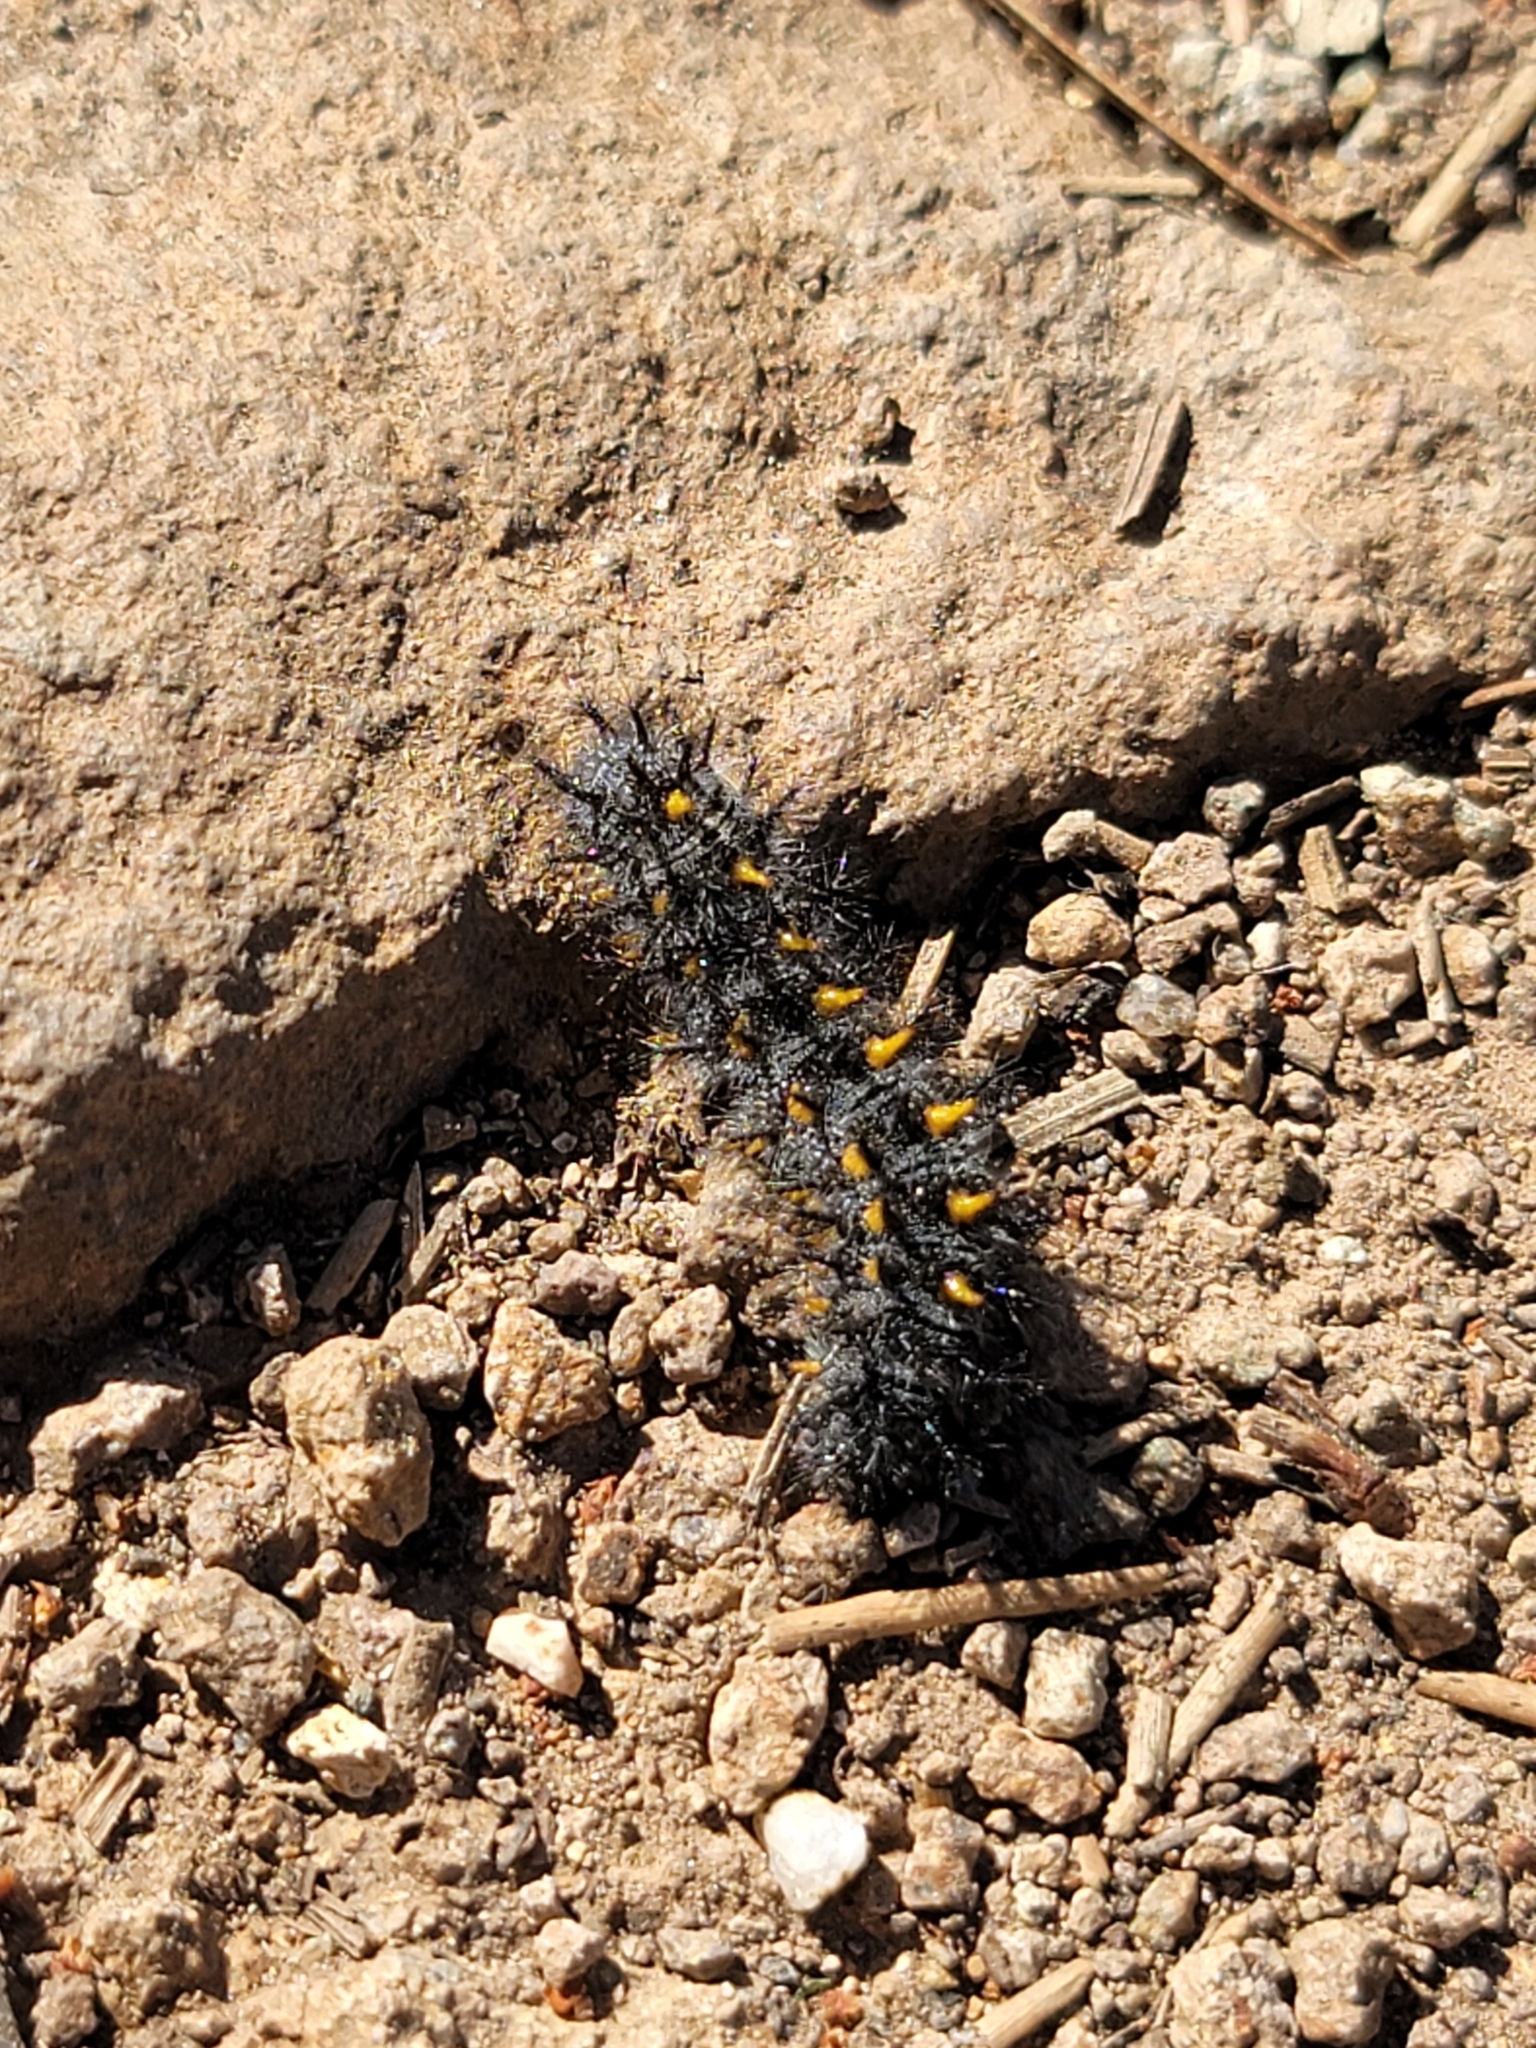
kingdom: Animalia
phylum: Arthropoda
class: Insecta
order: Lepidoptera
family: Nymphalidae
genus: Occidryas
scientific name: Occidryas chalcedona
